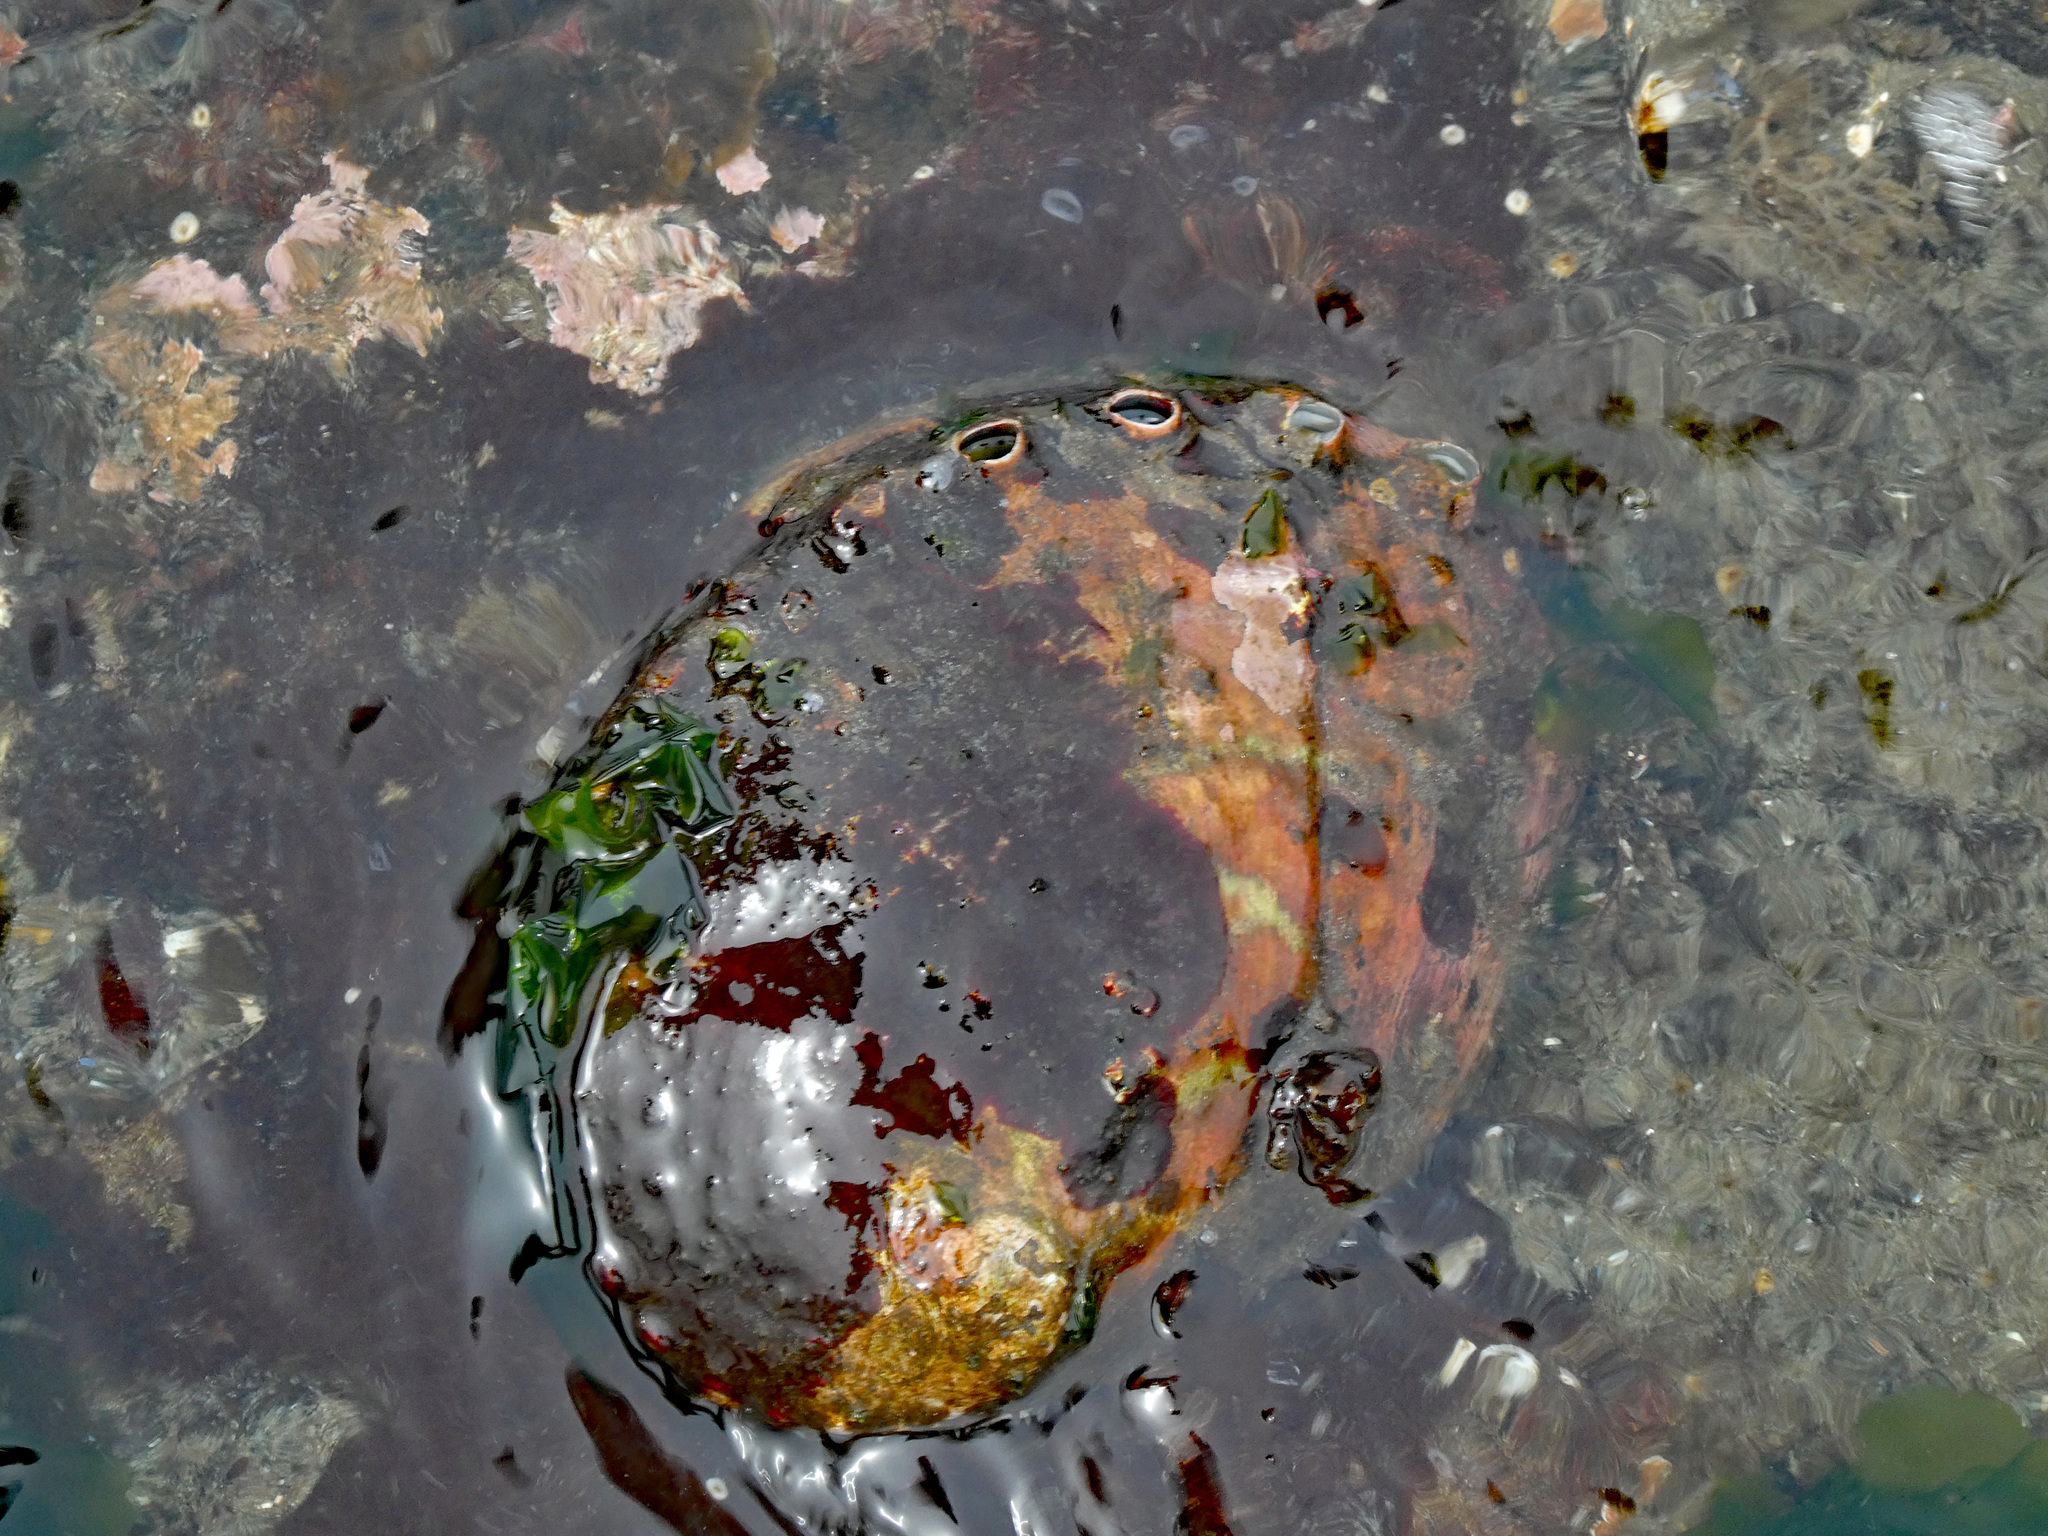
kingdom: Animalia
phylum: Mollusca
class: Gastropoda
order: Lepetellida
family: Haliotidae
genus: Haliotis
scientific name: Haliotis kamtschatkana
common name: Pinto abalone
